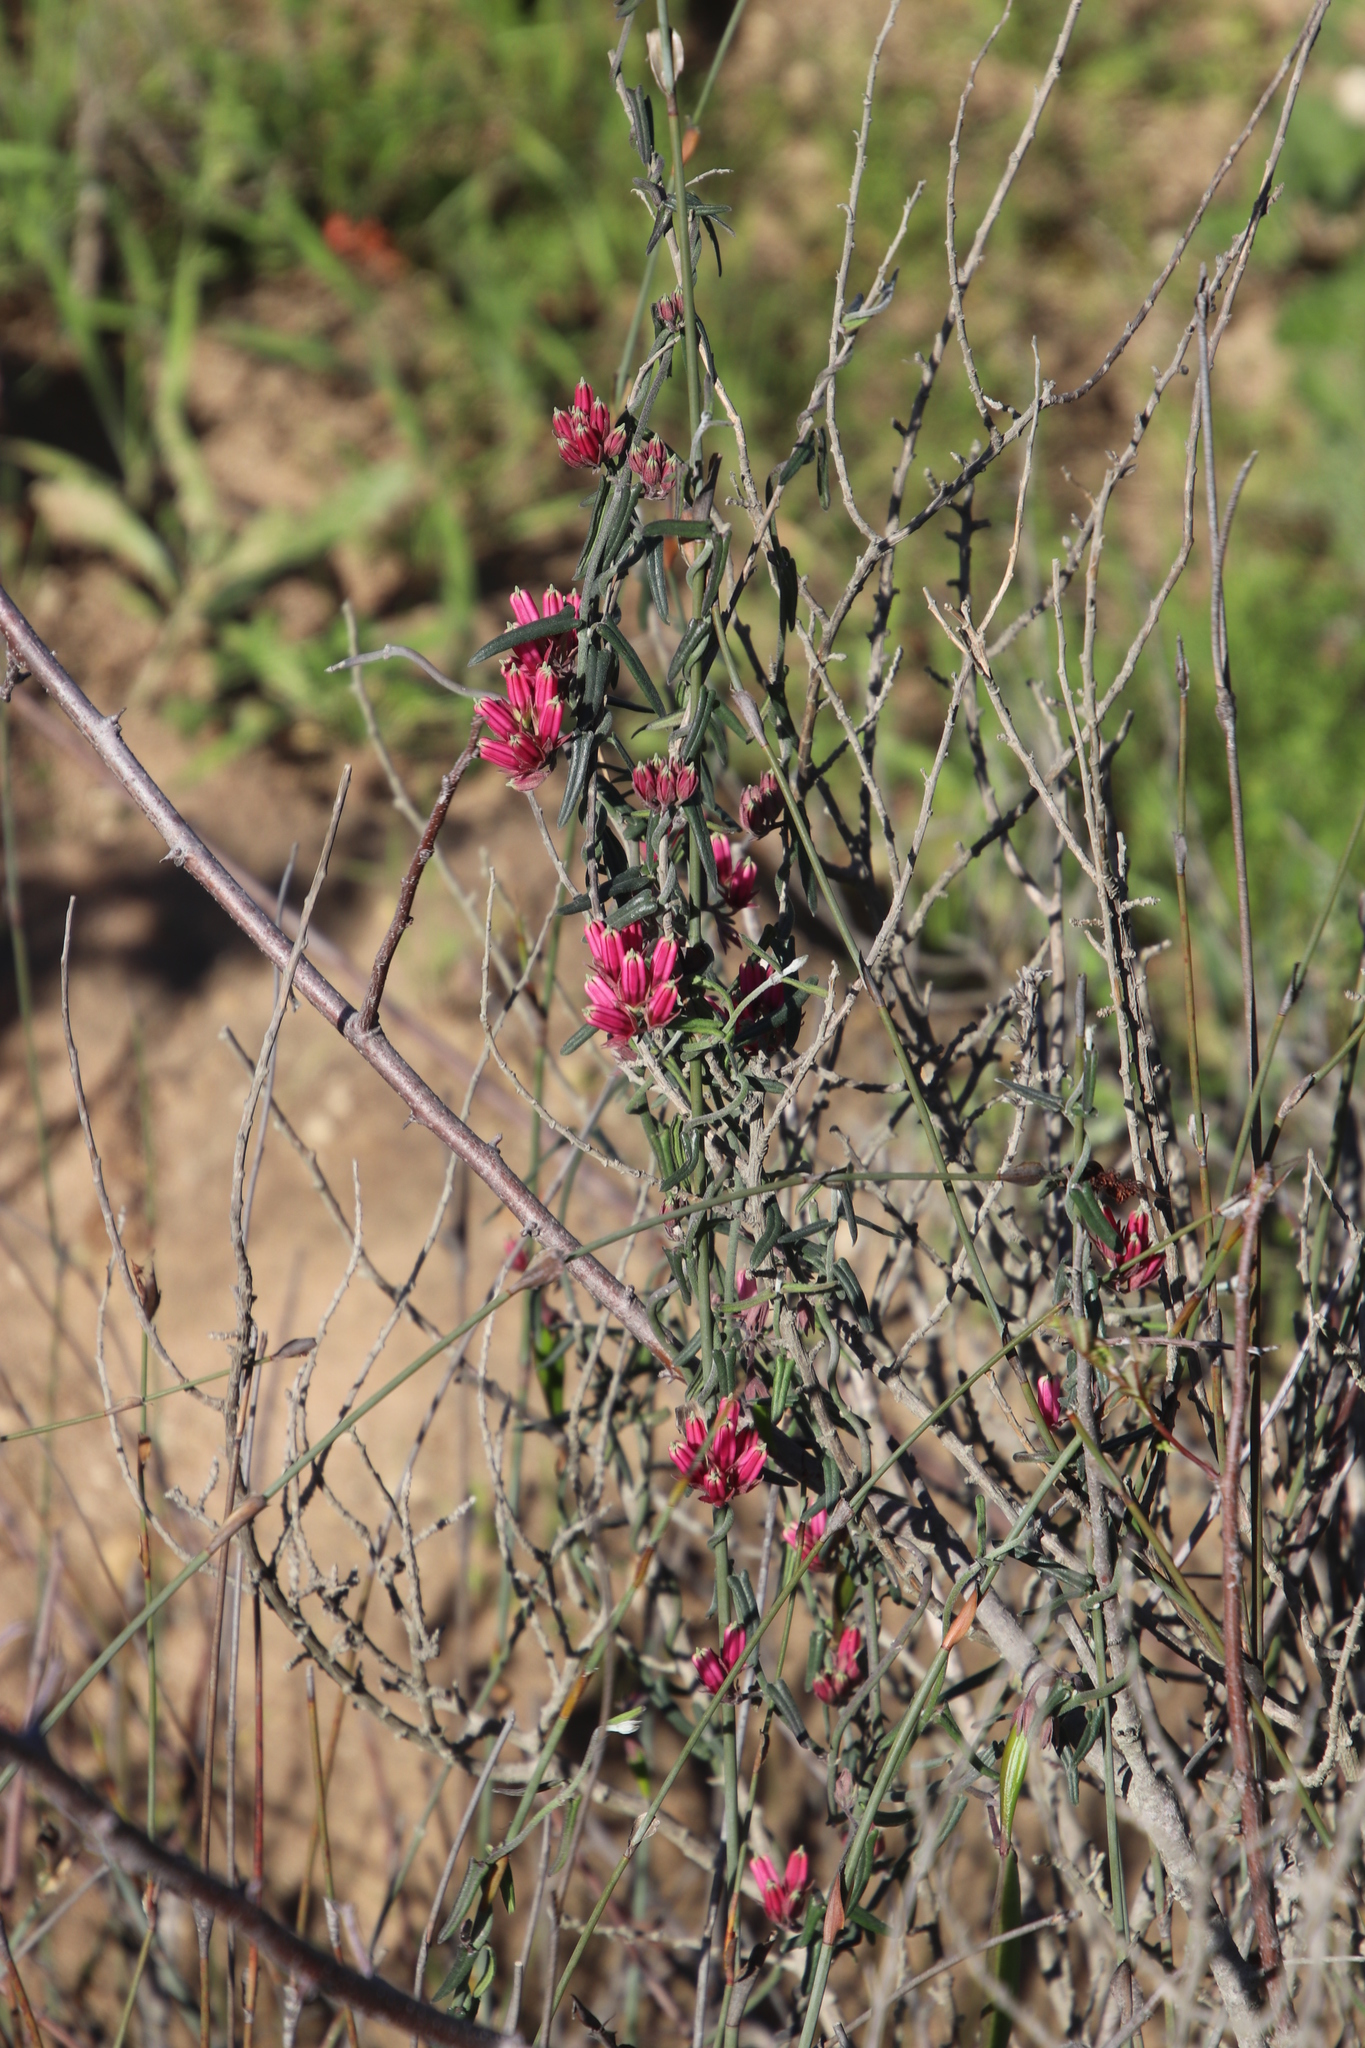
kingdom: Plantae
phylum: Tracheophyta
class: Magnoliopsida
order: Gentianales
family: Apocynaceae
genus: Microloma
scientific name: Microloma sagittatum
